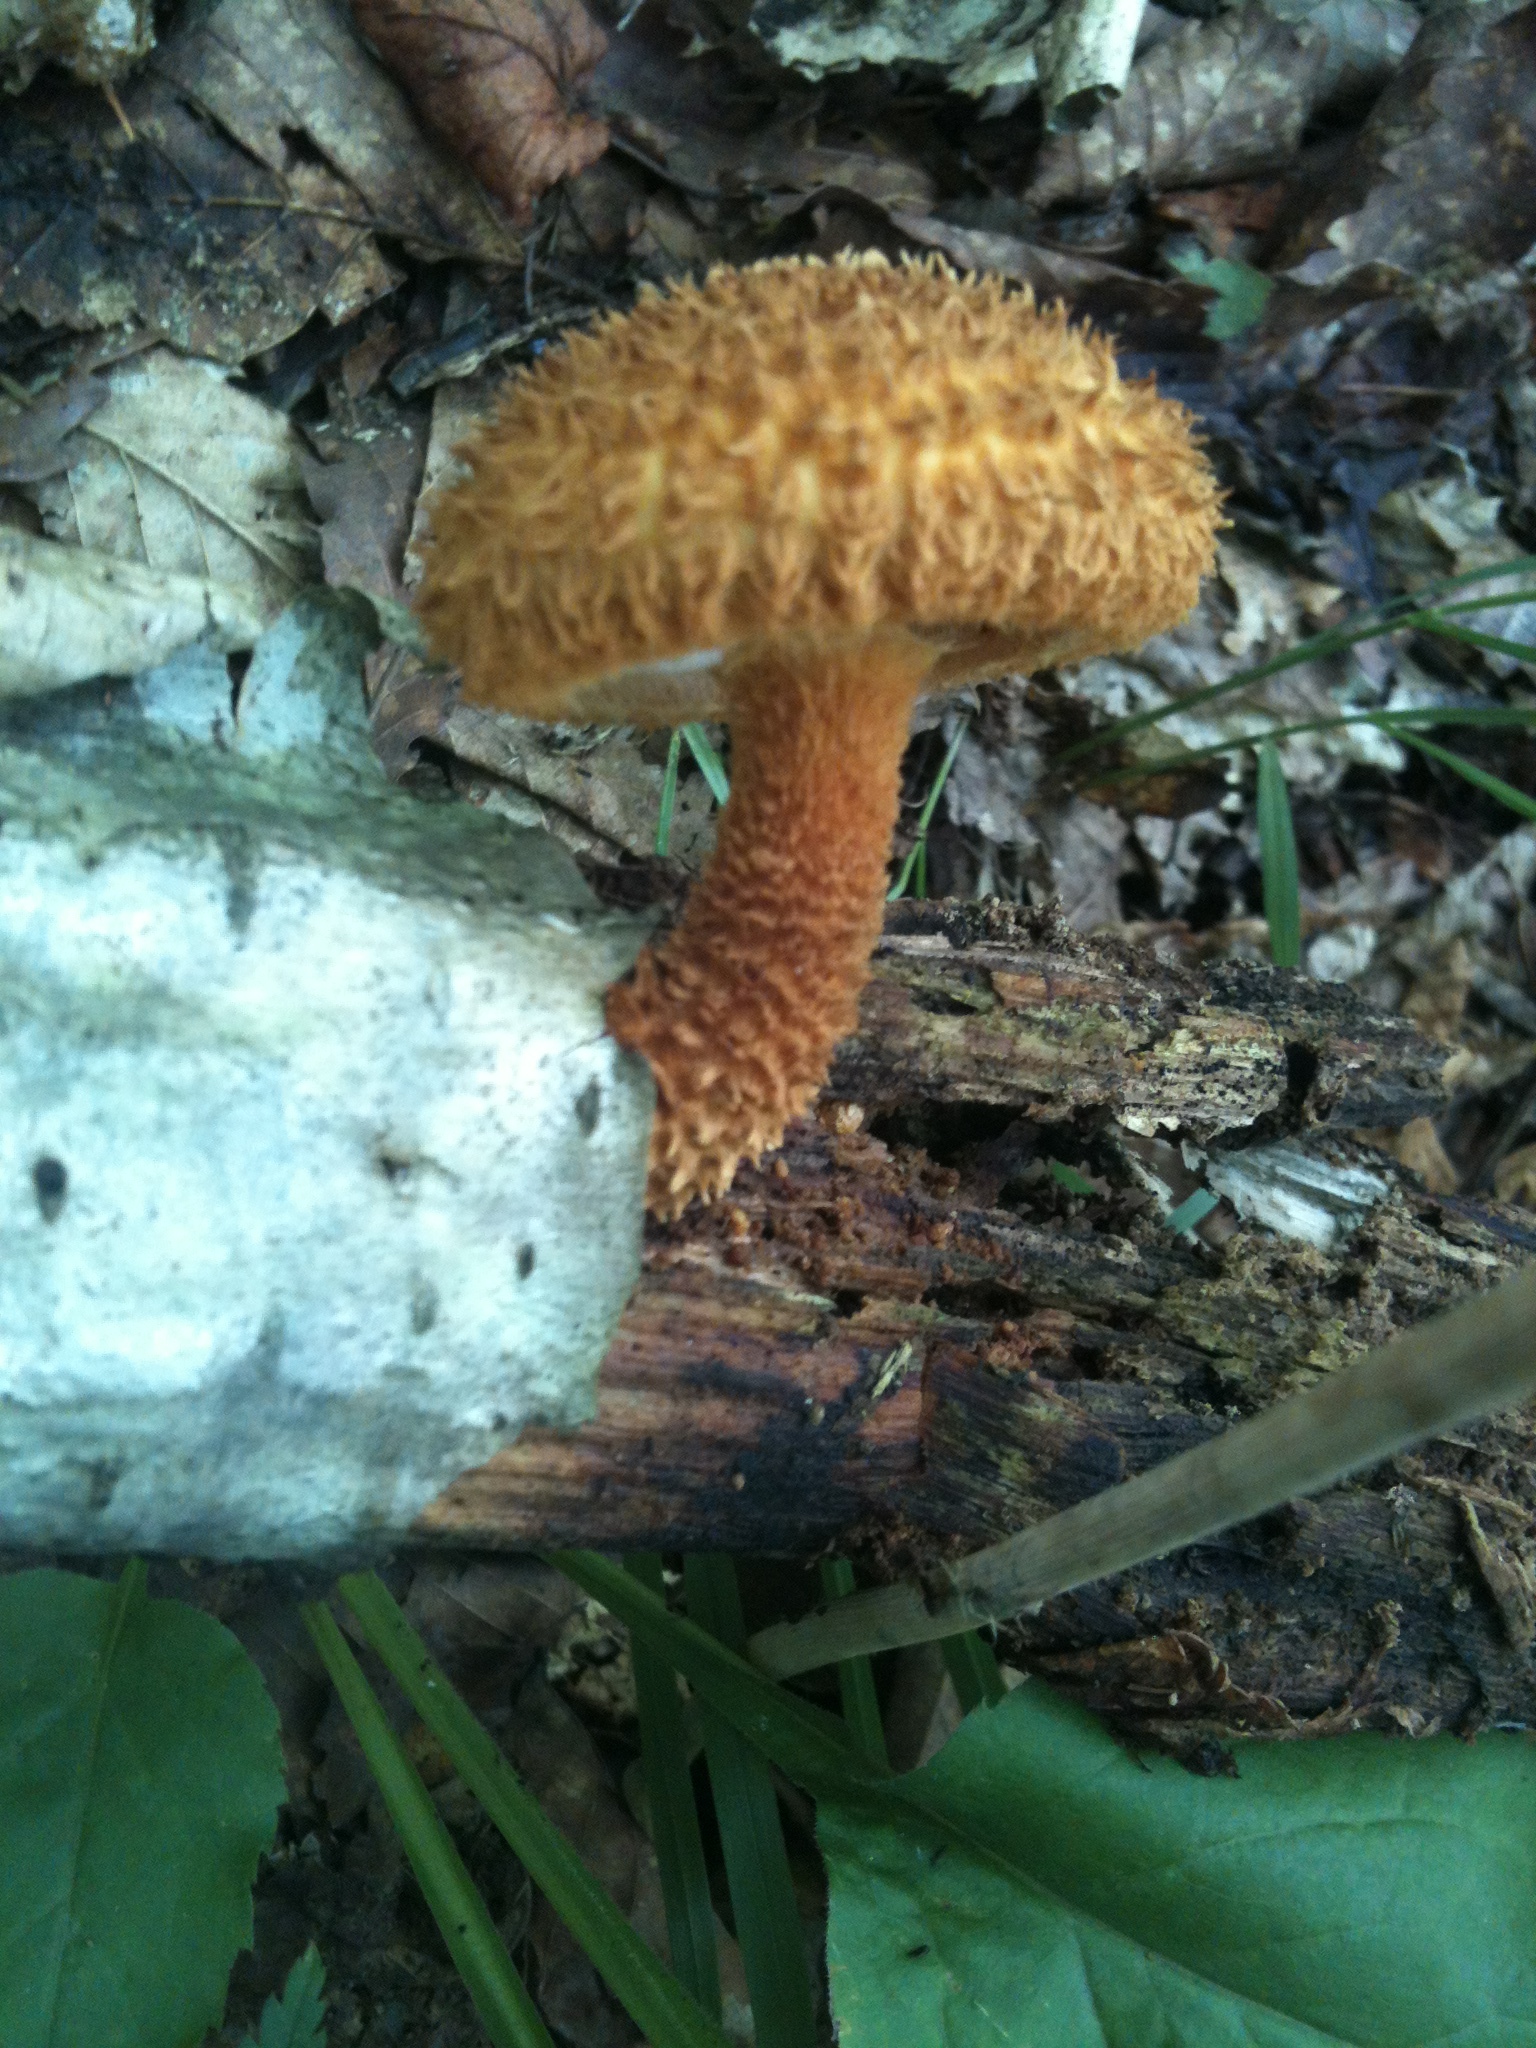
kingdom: Fungi
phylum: Basidiomycota
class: Agaricomycetes
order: Agaricales
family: Agaricaceae
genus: Leucopholiota
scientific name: Leucopholiota decorosa
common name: Decorated pholiota
